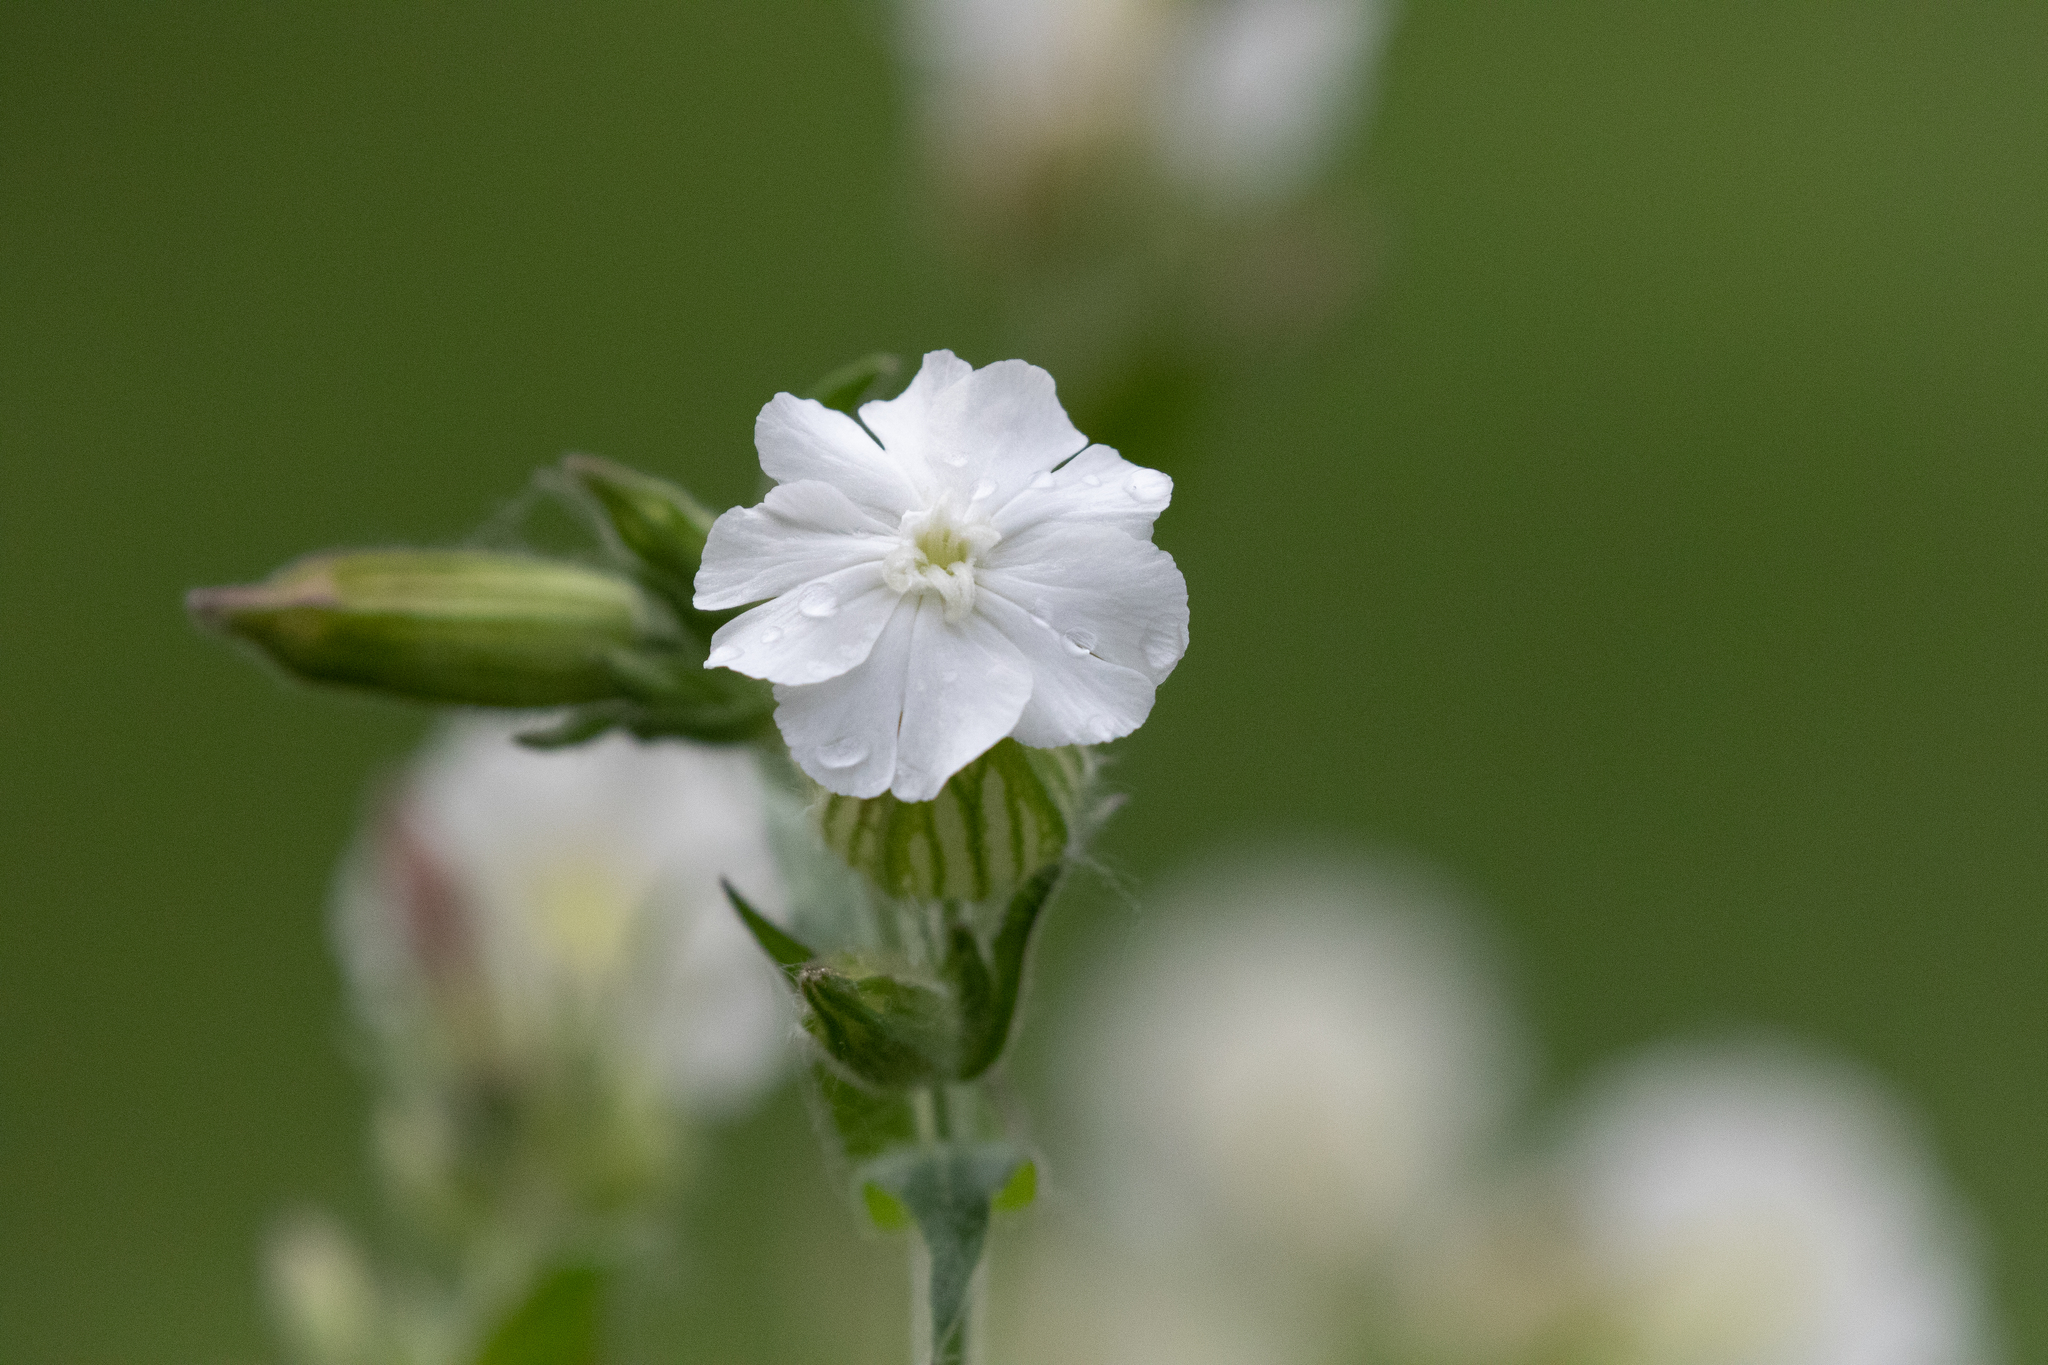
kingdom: Plantae
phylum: Tracheophyta
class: Magnoliopsida
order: Caryophyllales
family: Caryophyllaceae
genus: Silene
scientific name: Silene latifolia
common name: White campion
